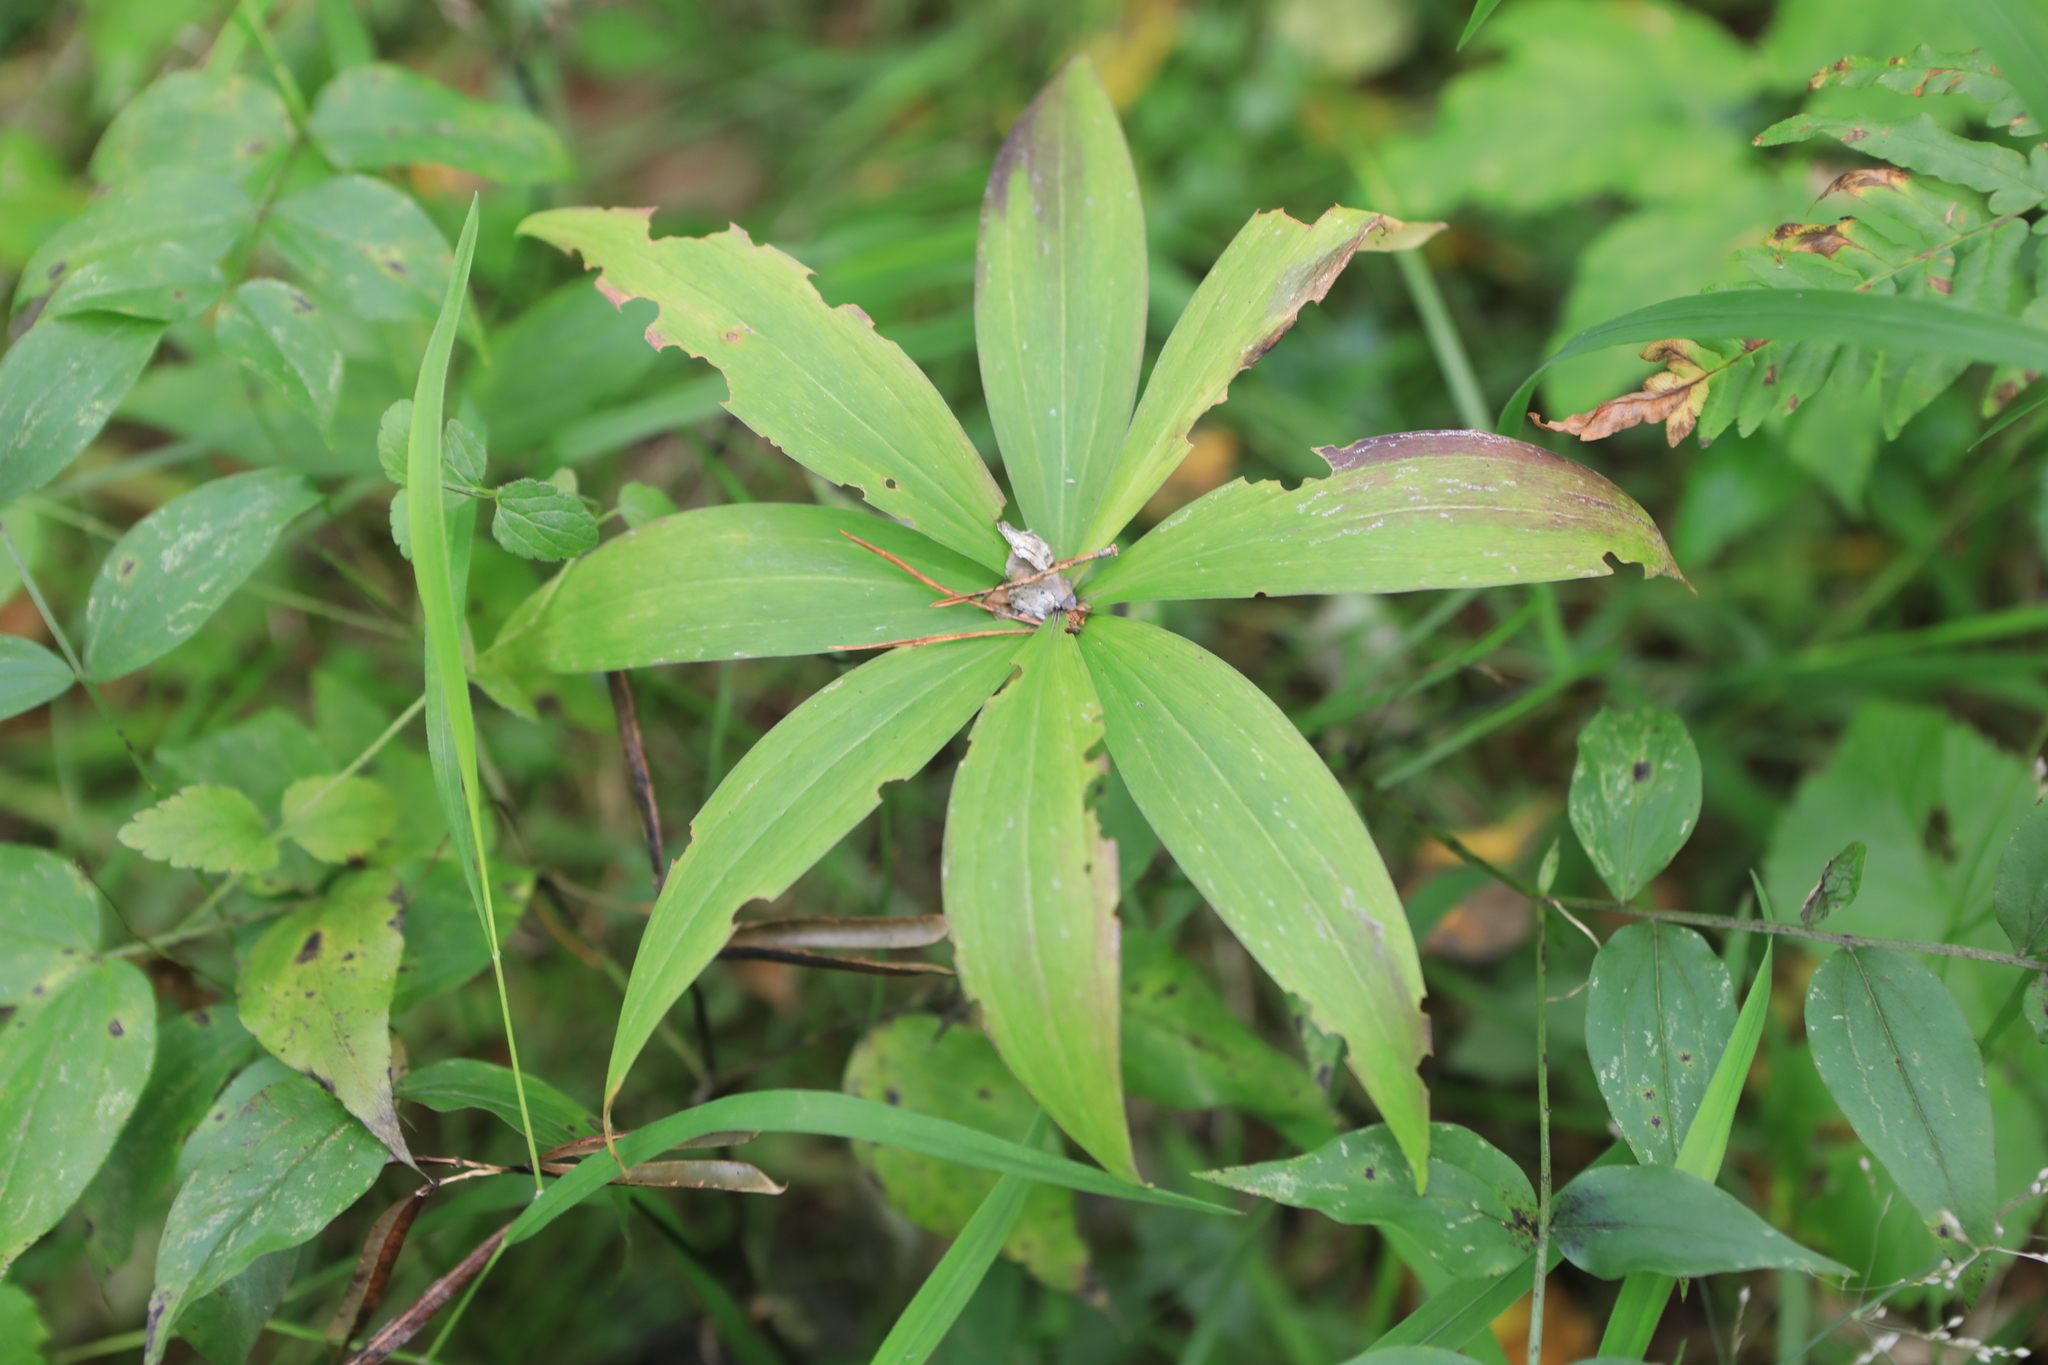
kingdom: Plantae
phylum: Tracheophyta
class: Liliopsida
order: Liliales
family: Liliaceae
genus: Lilium
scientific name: Lilium martagon
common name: Martagon lily
